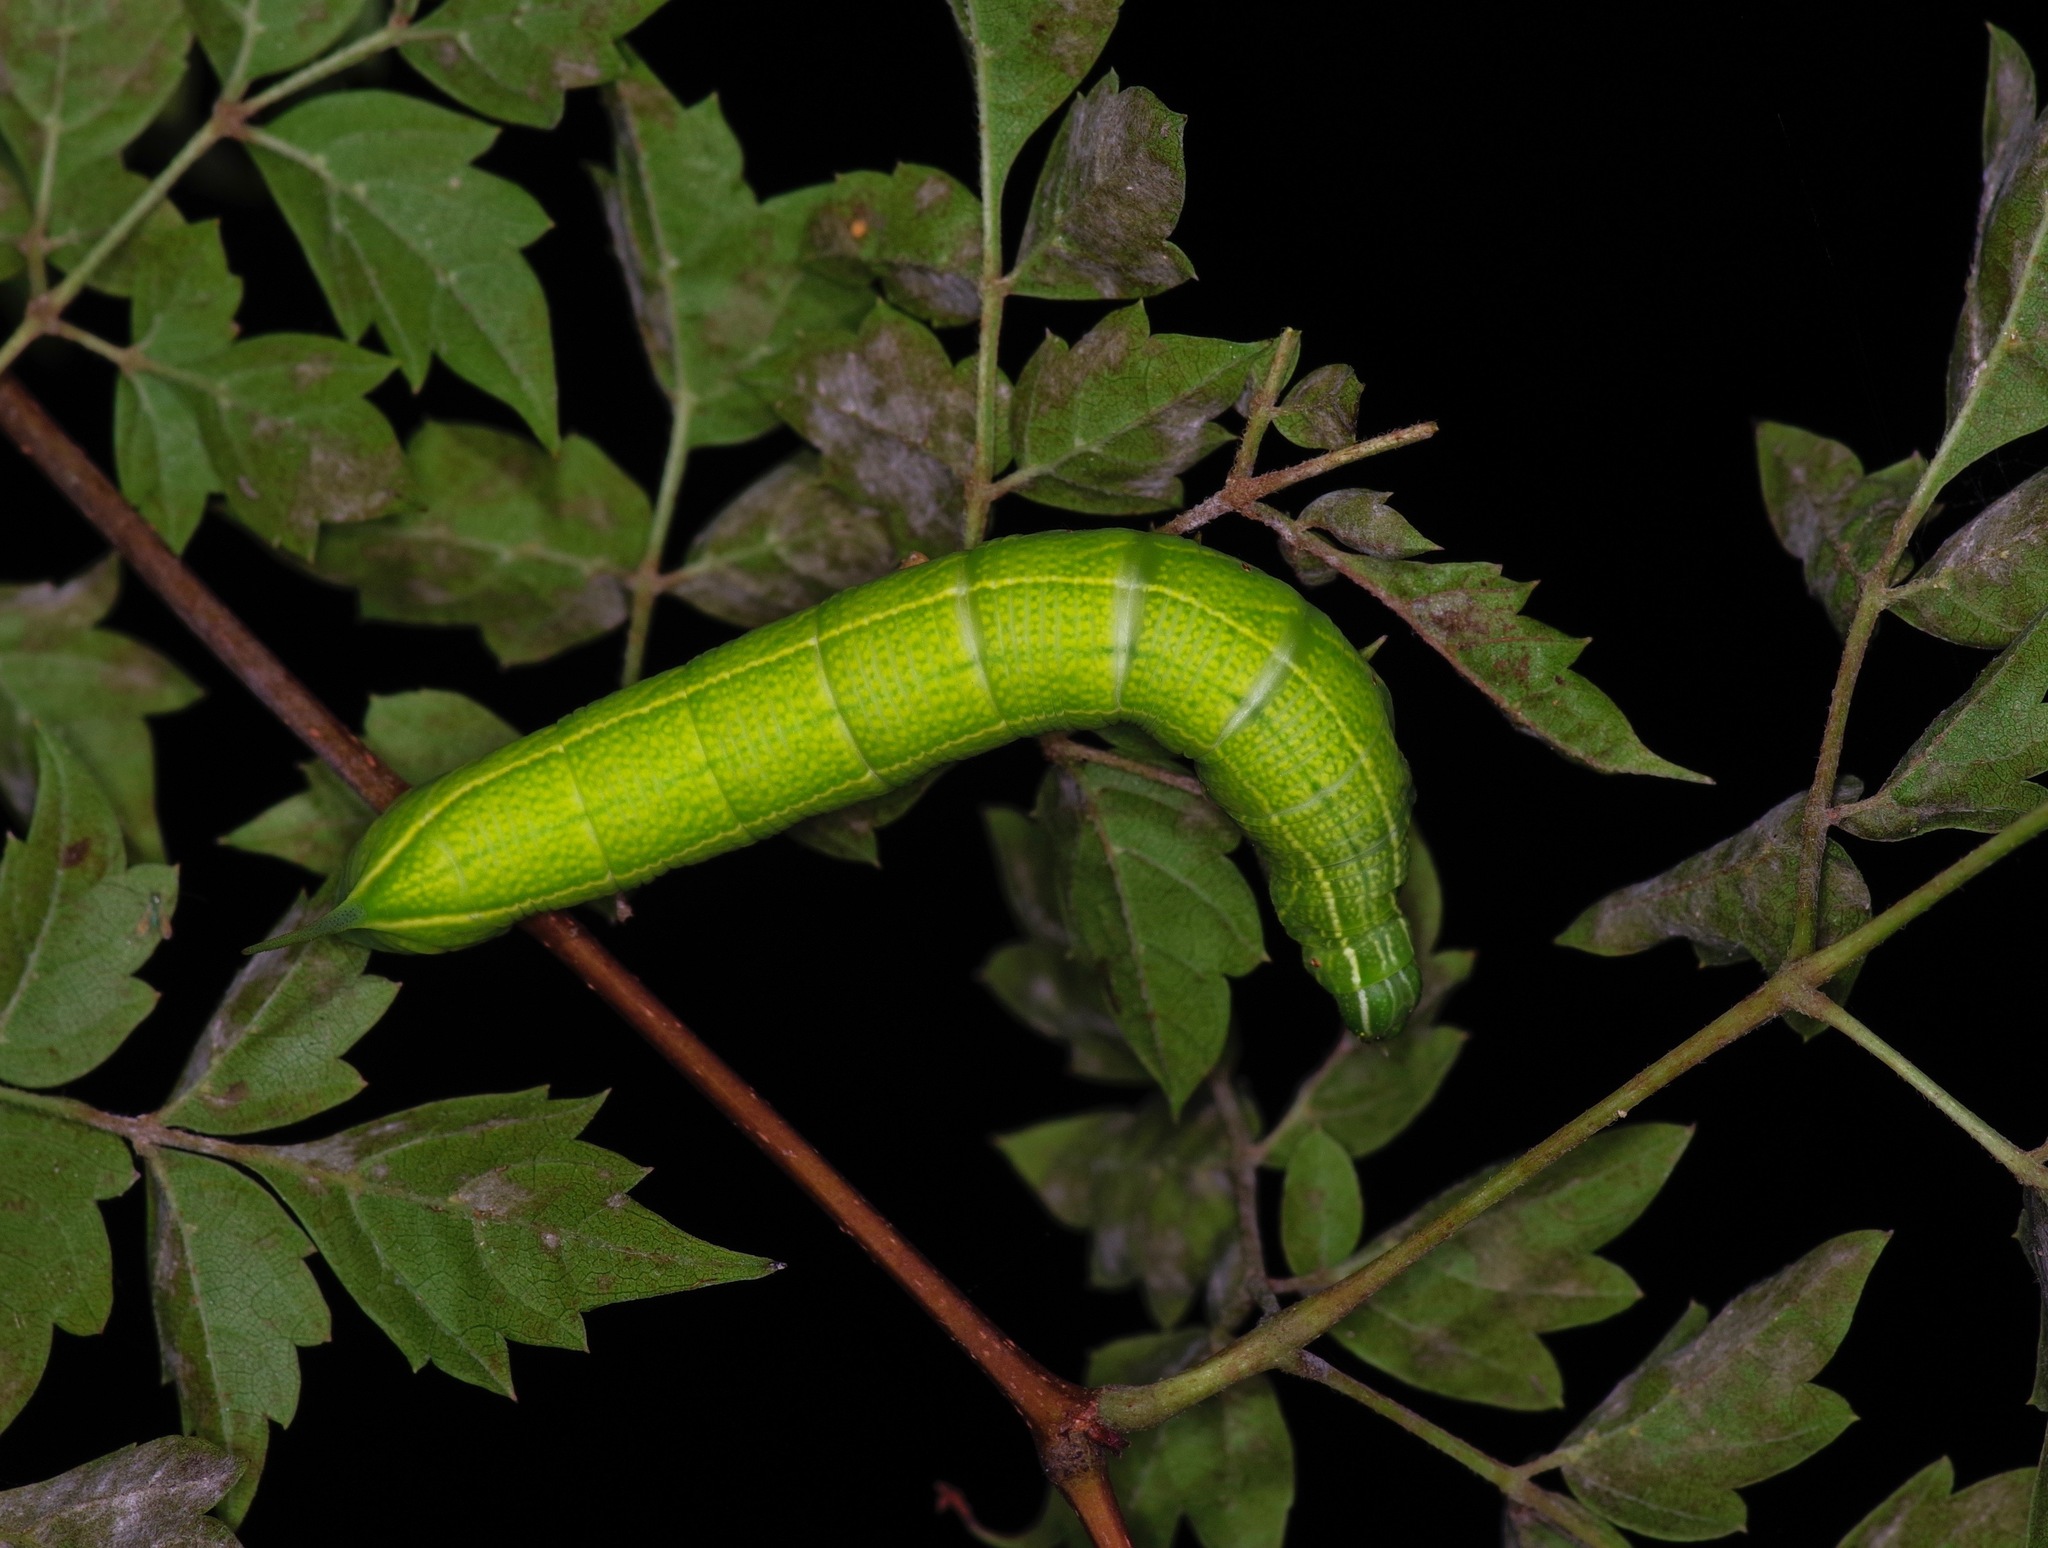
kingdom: Animalia
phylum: Arthropoda
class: Insecta
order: Lepidoptera
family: Sphingidae
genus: Enyo
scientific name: Enyo lugubris
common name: Mournful sphinx
